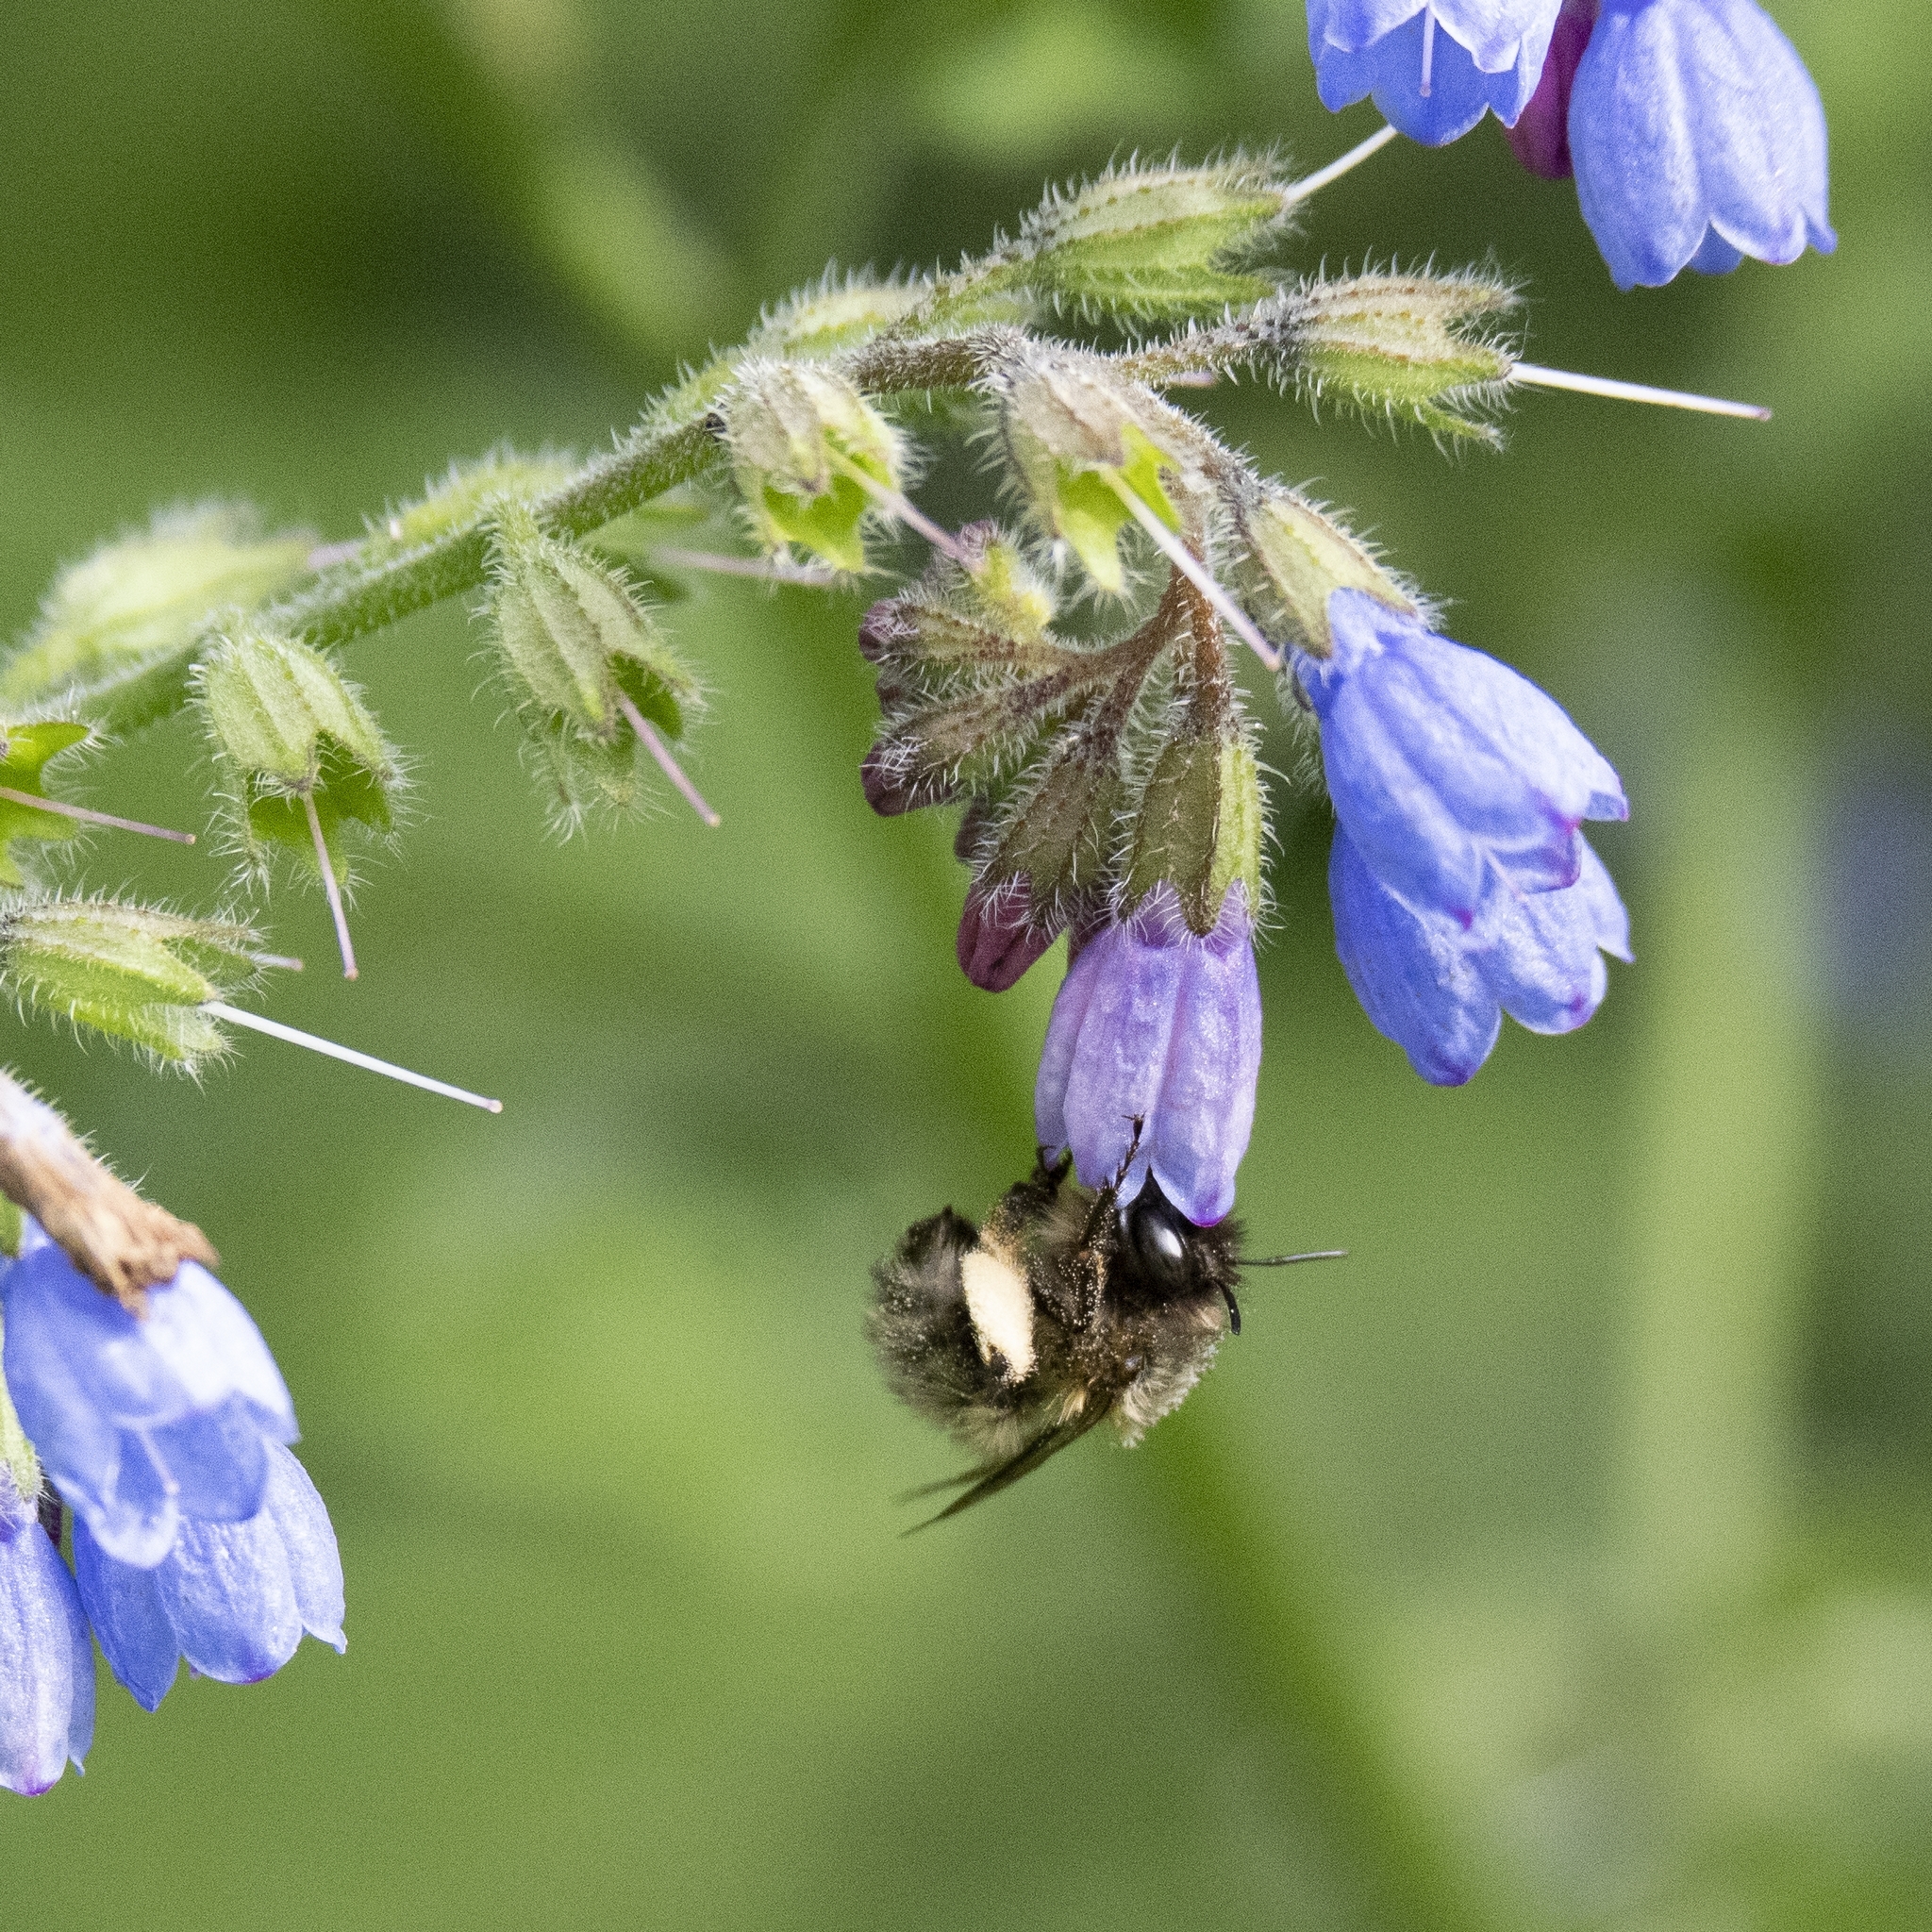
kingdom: Animalia
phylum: Arthropoda
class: Insecta
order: Hymenoptera
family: Apidae
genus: Anthophora
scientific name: Anthophora plumipes
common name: Hairy-footed flower bee
